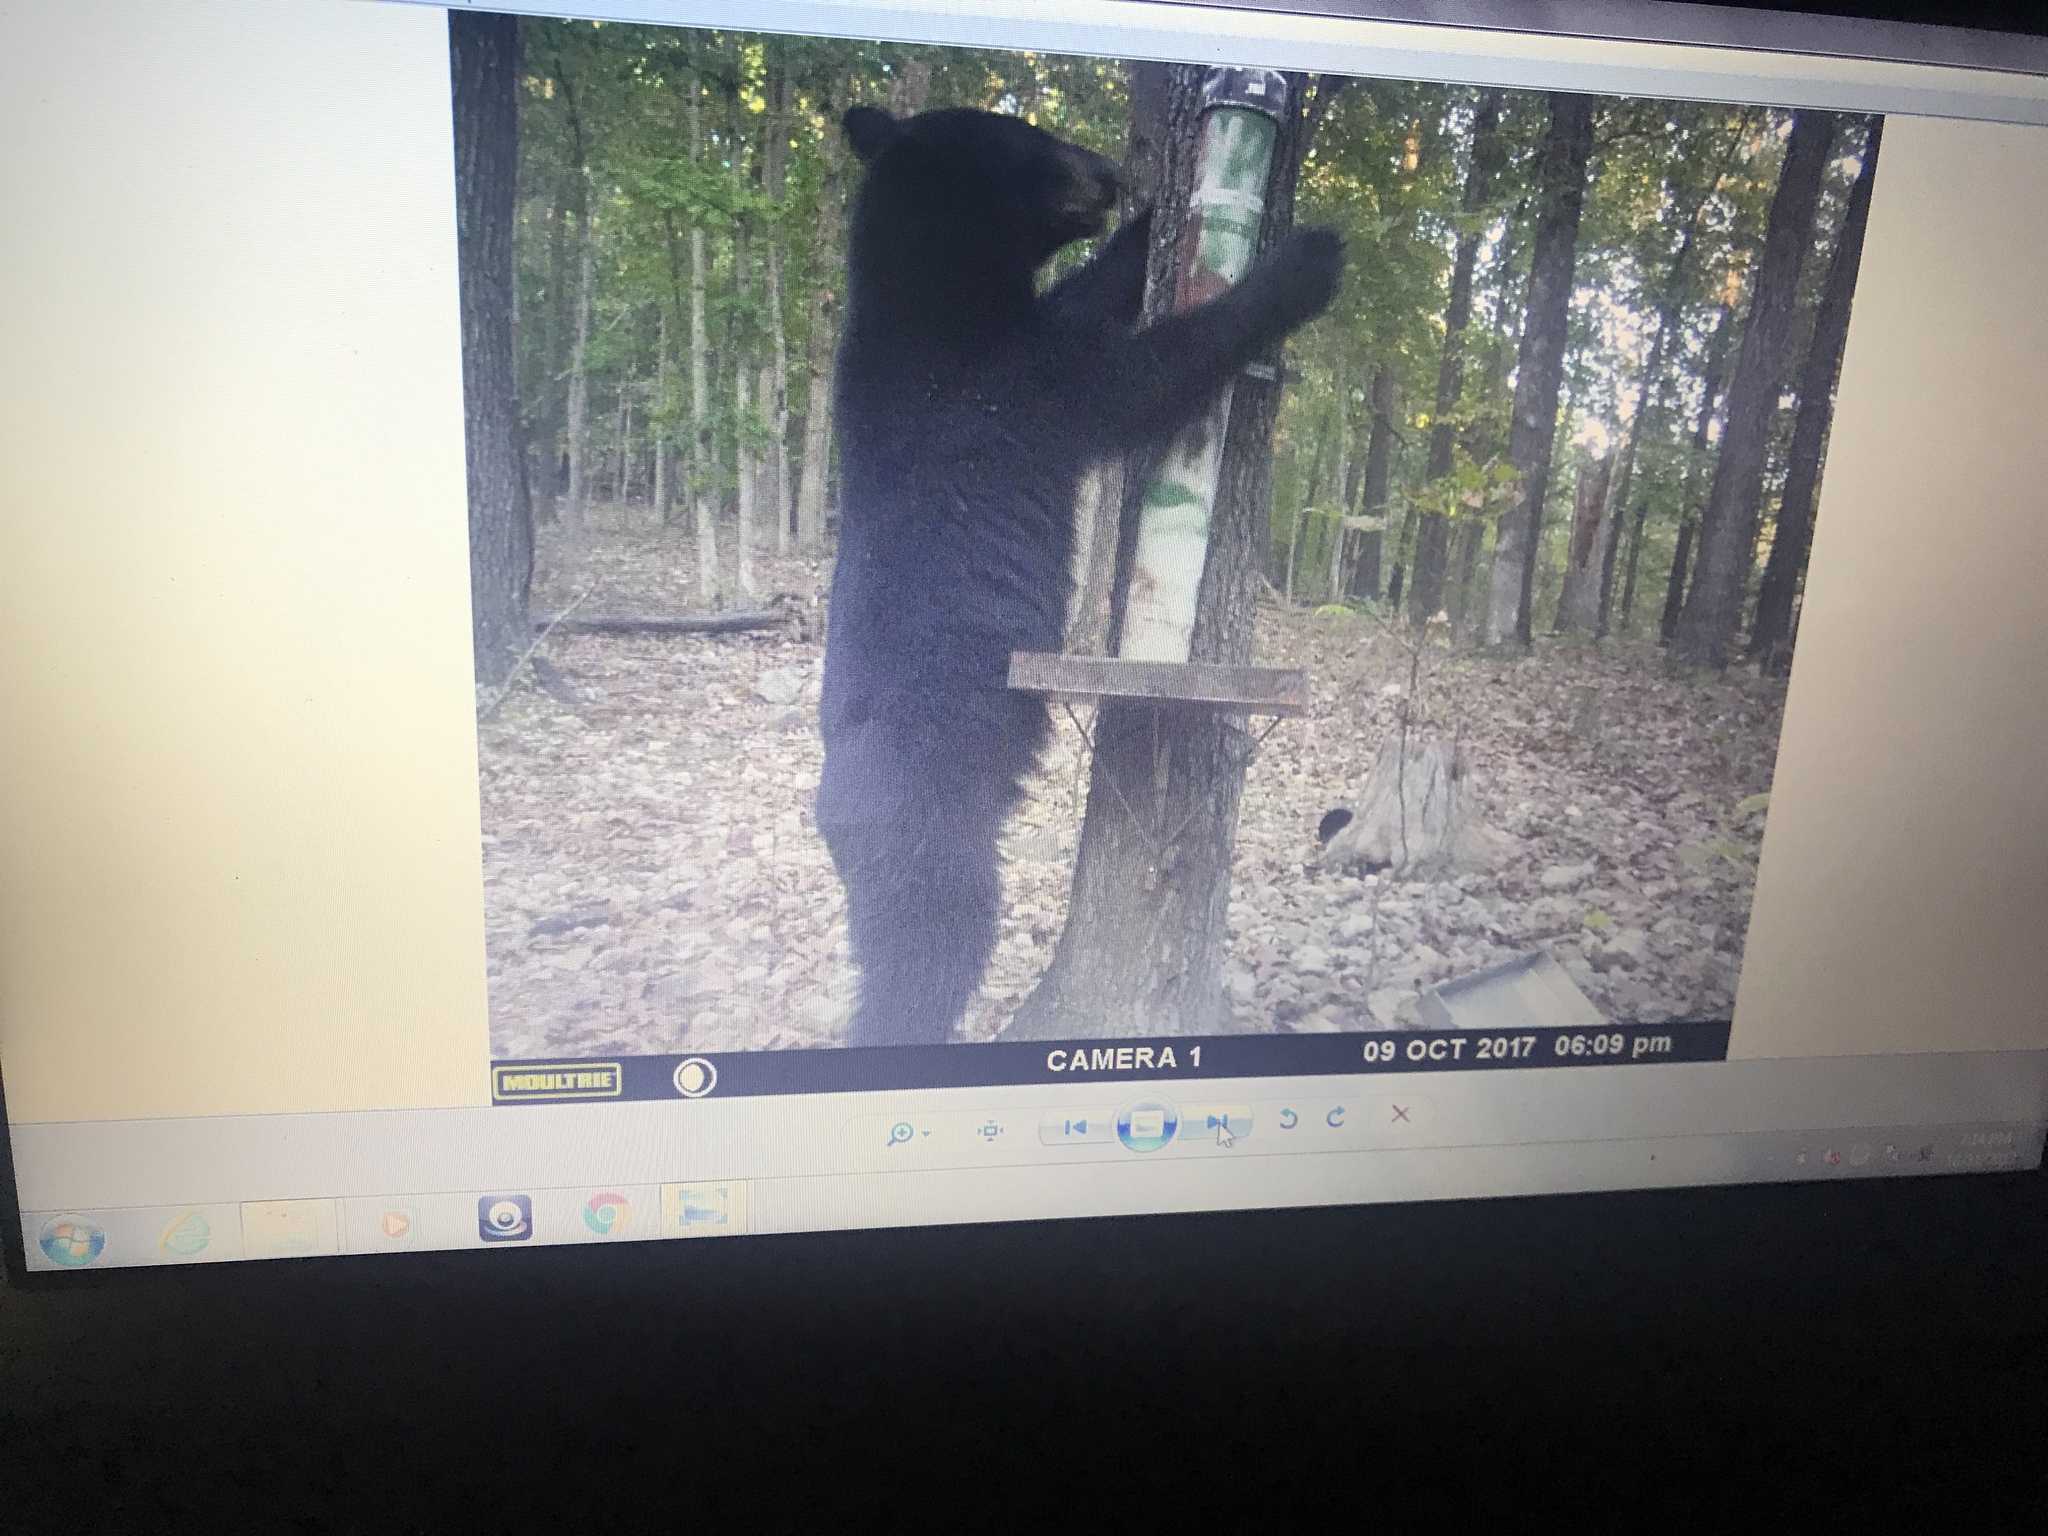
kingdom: Animalia
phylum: Chordata
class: Mammalia
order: Carnivora
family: Ursidae
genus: Ursus
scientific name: Ursus americanus
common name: American black bear
